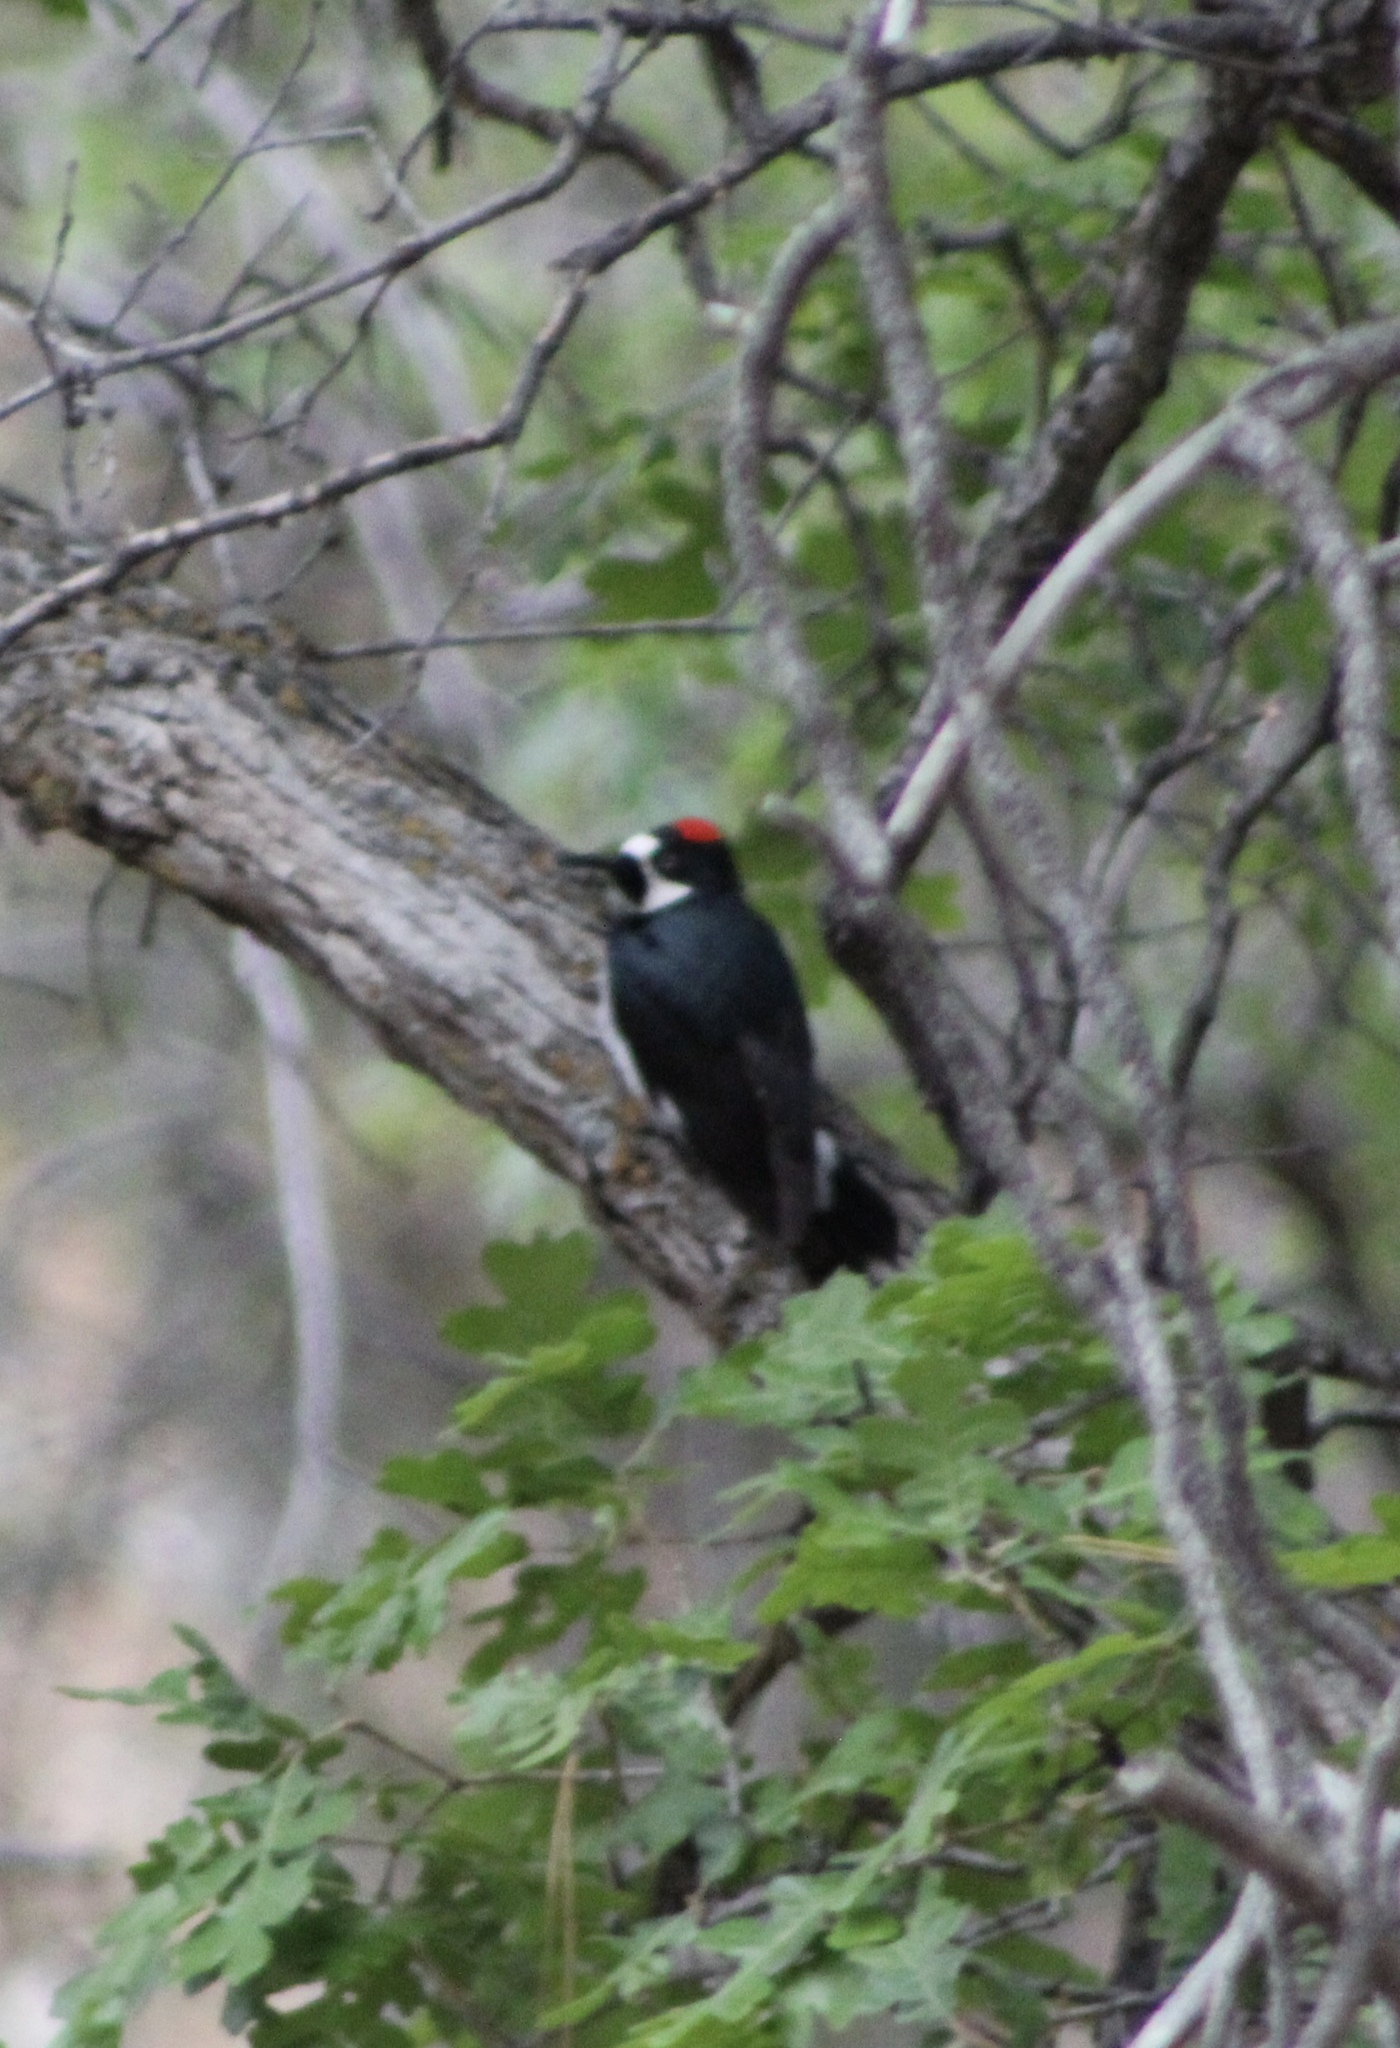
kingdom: Animalia
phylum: Chordata
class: Aves
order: Piciformes
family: Picidae
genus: Melanerpes
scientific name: Melanerpes formicivorus
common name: Acorn woodpecker
